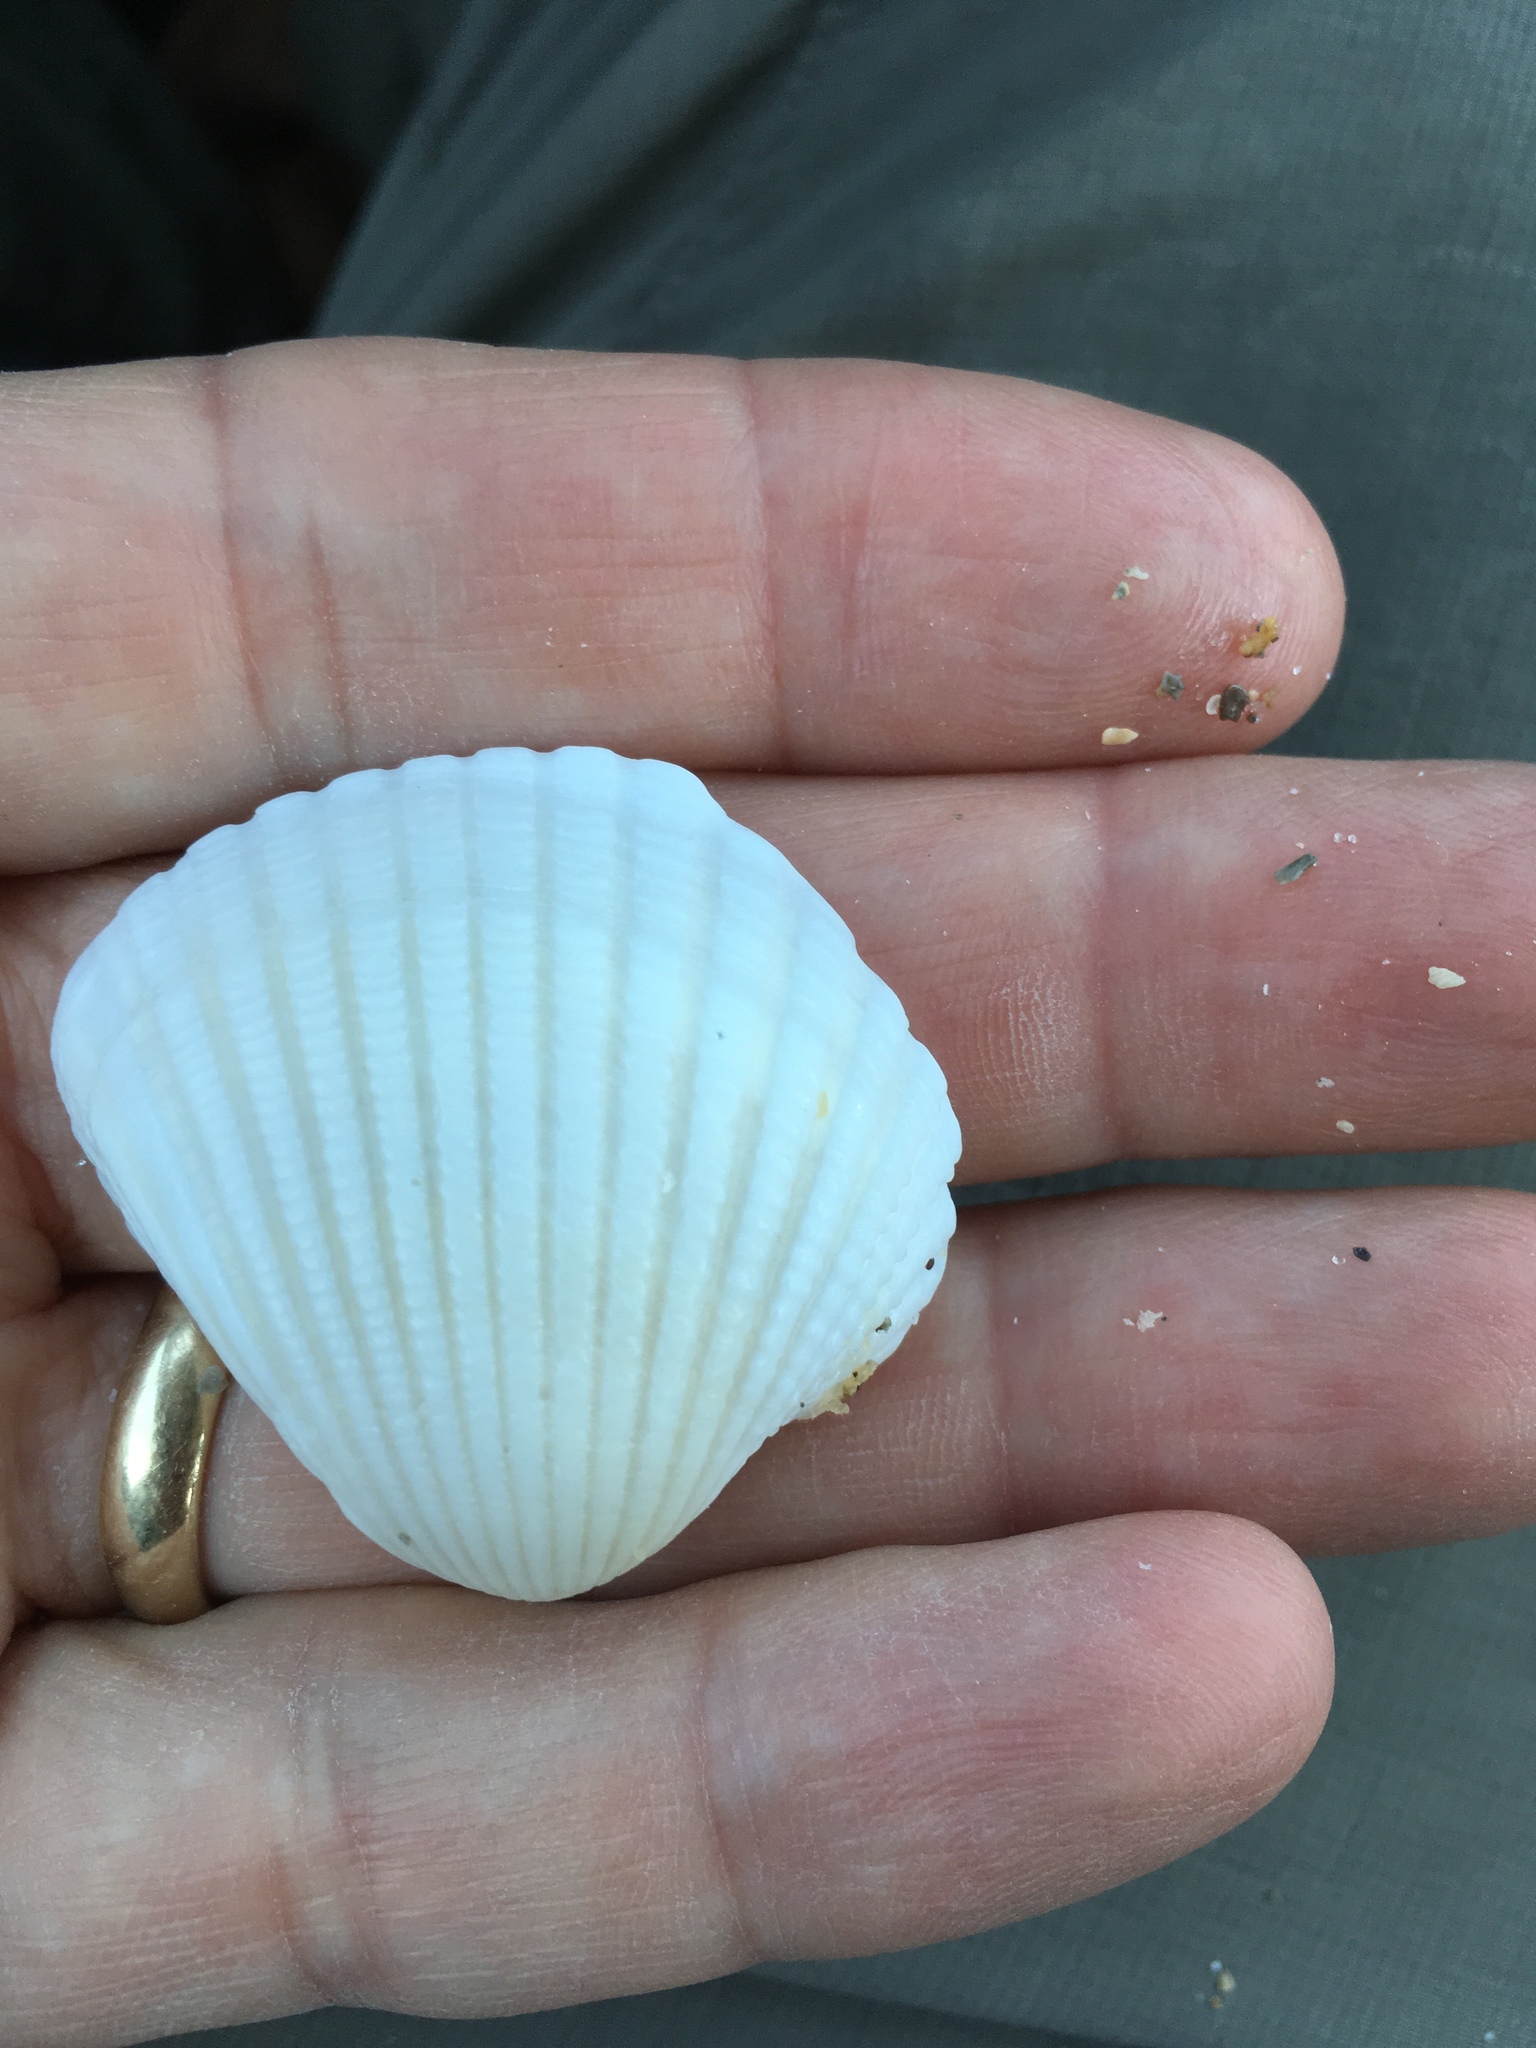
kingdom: Animalia
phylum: Mollusca
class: Bivalvia
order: Arcida
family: Arcidae
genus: Anadara
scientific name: Anadara brasiliana
